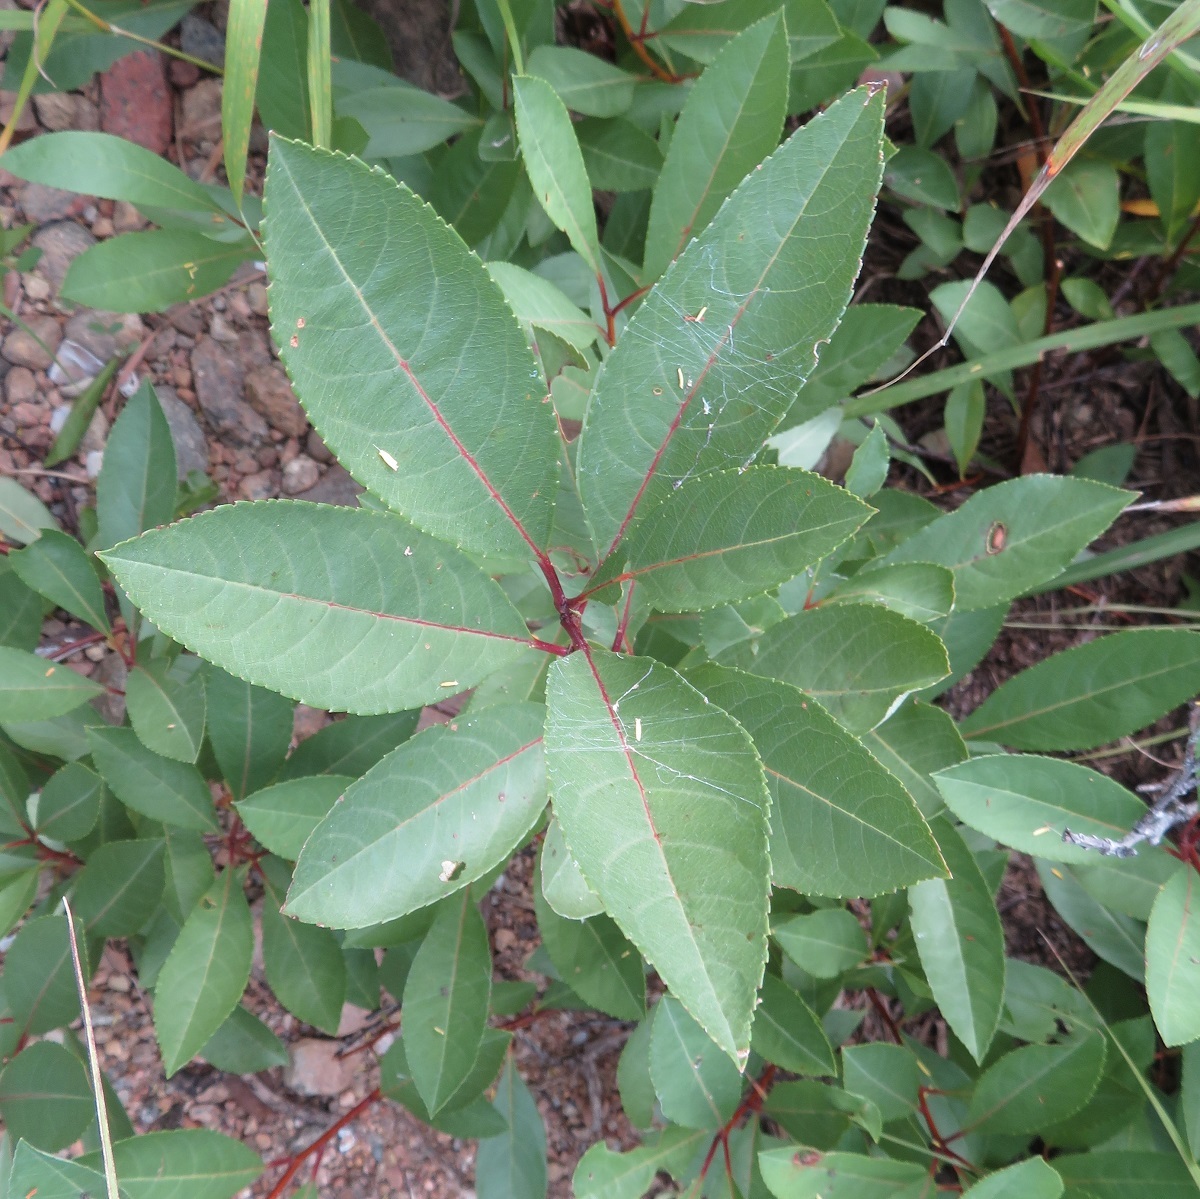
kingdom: Plantae
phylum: Tracheophyta
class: Magnoliopsida
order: Rosales
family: Rosaceae
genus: Prunus
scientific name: Prunus pumila
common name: Dwarf cherry
